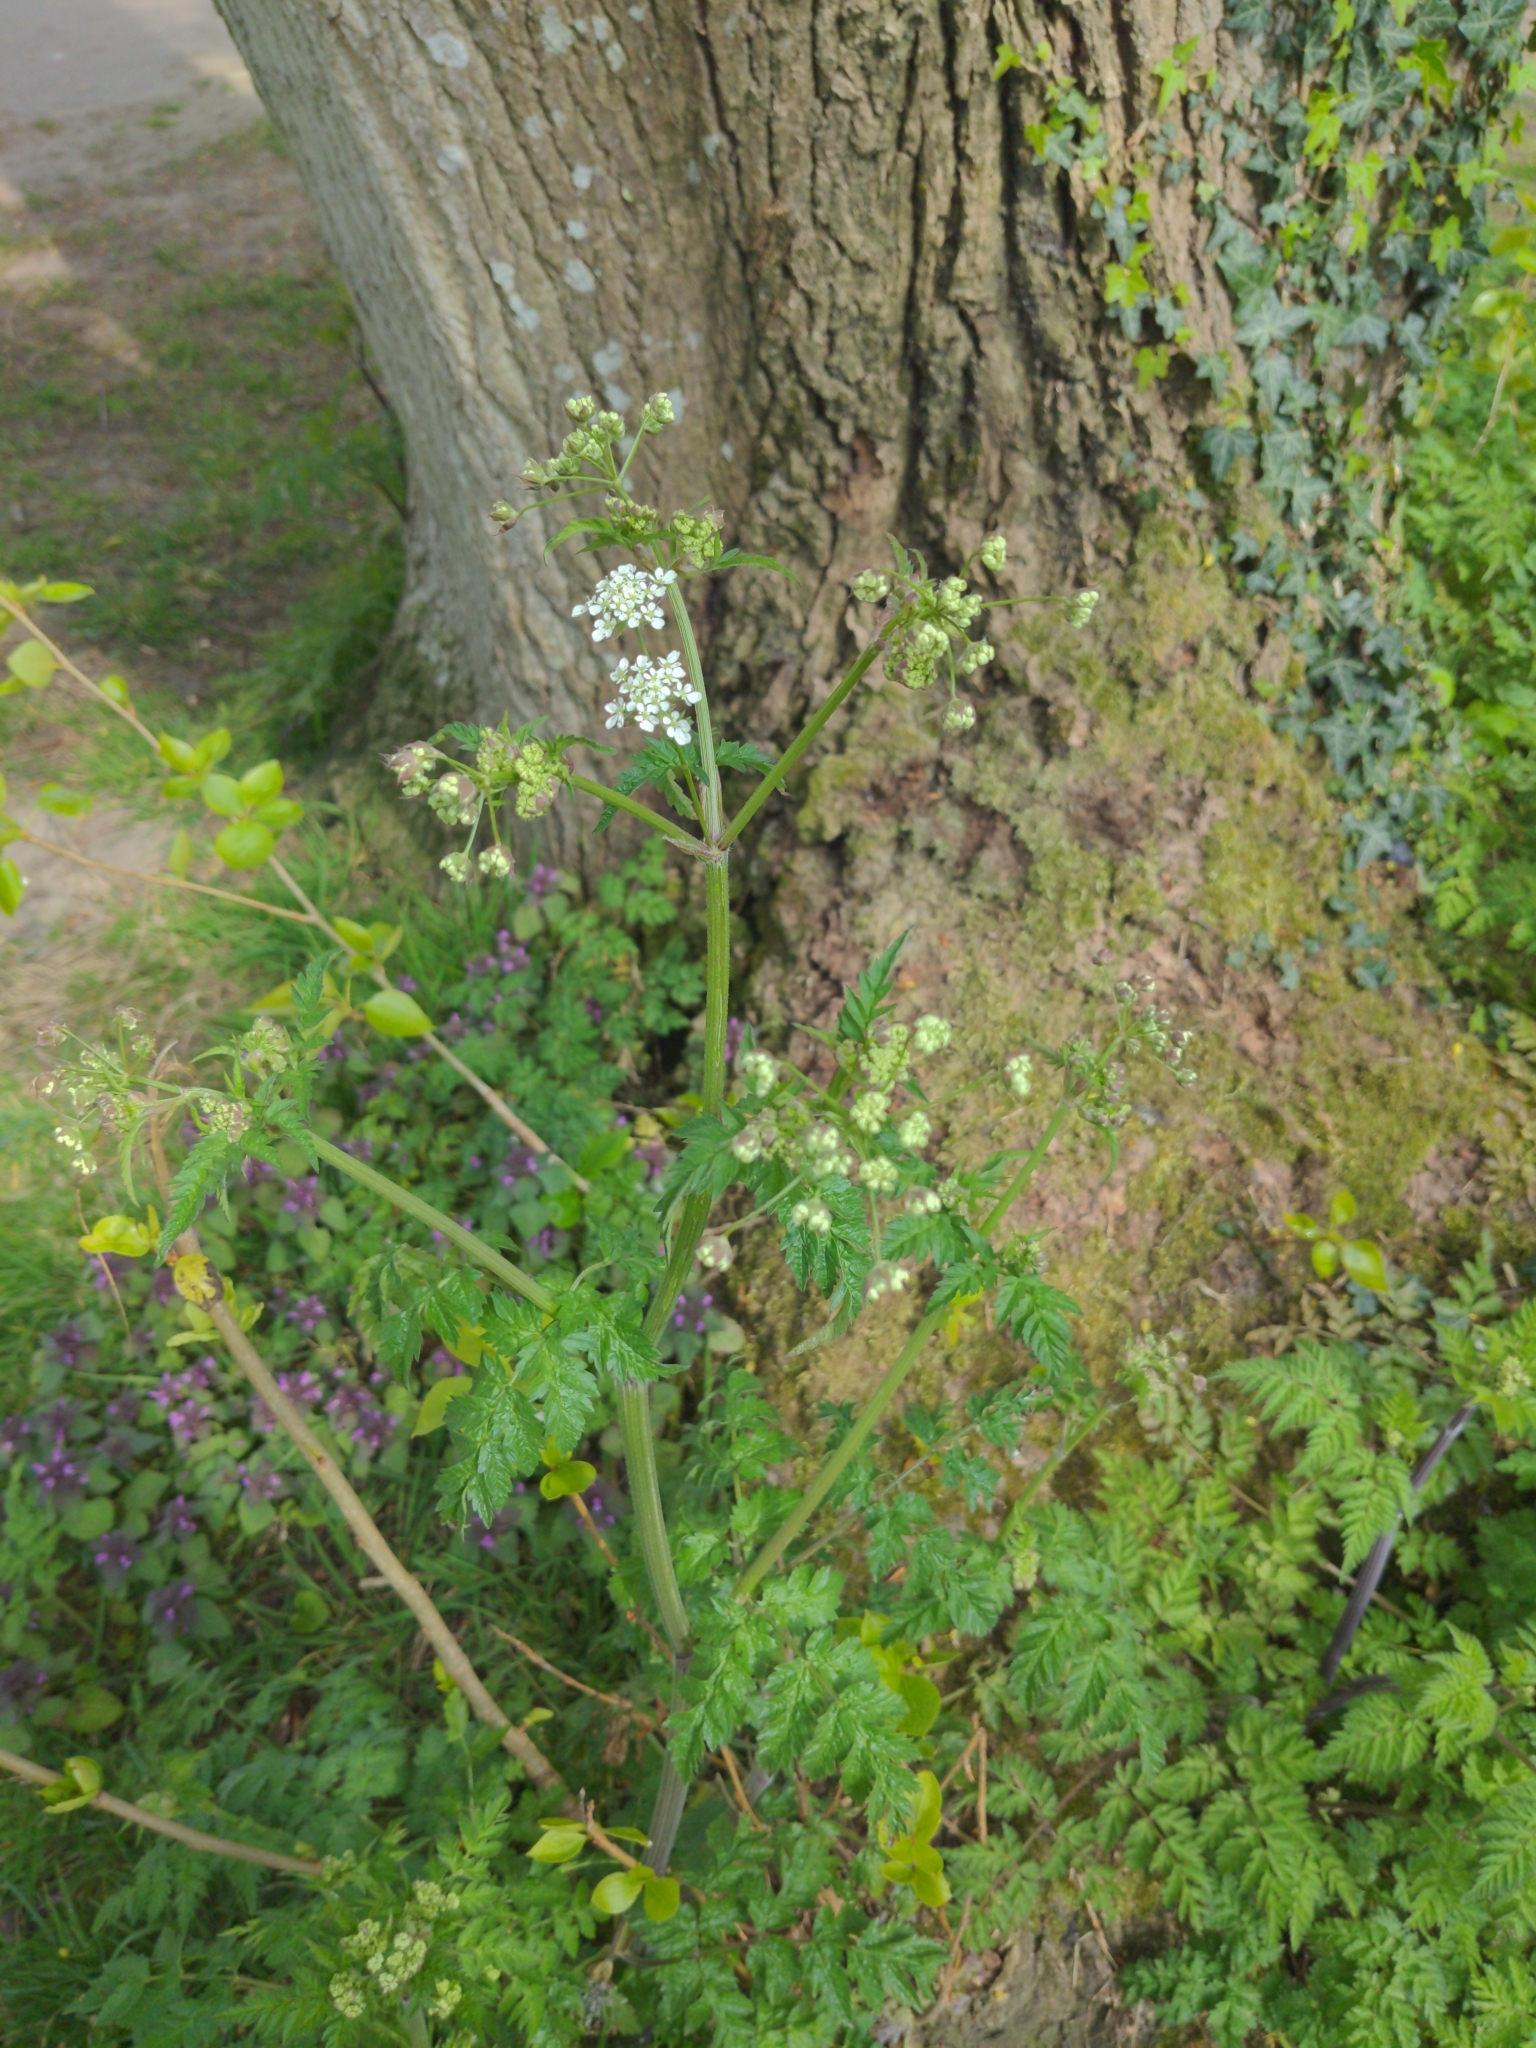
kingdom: Plantae
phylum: Tracheophyta
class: Magnoliopsida
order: Apiales
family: Apiaceae
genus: Anthriscus
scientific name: Anthriscus sylvestris
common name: Cow parsley
